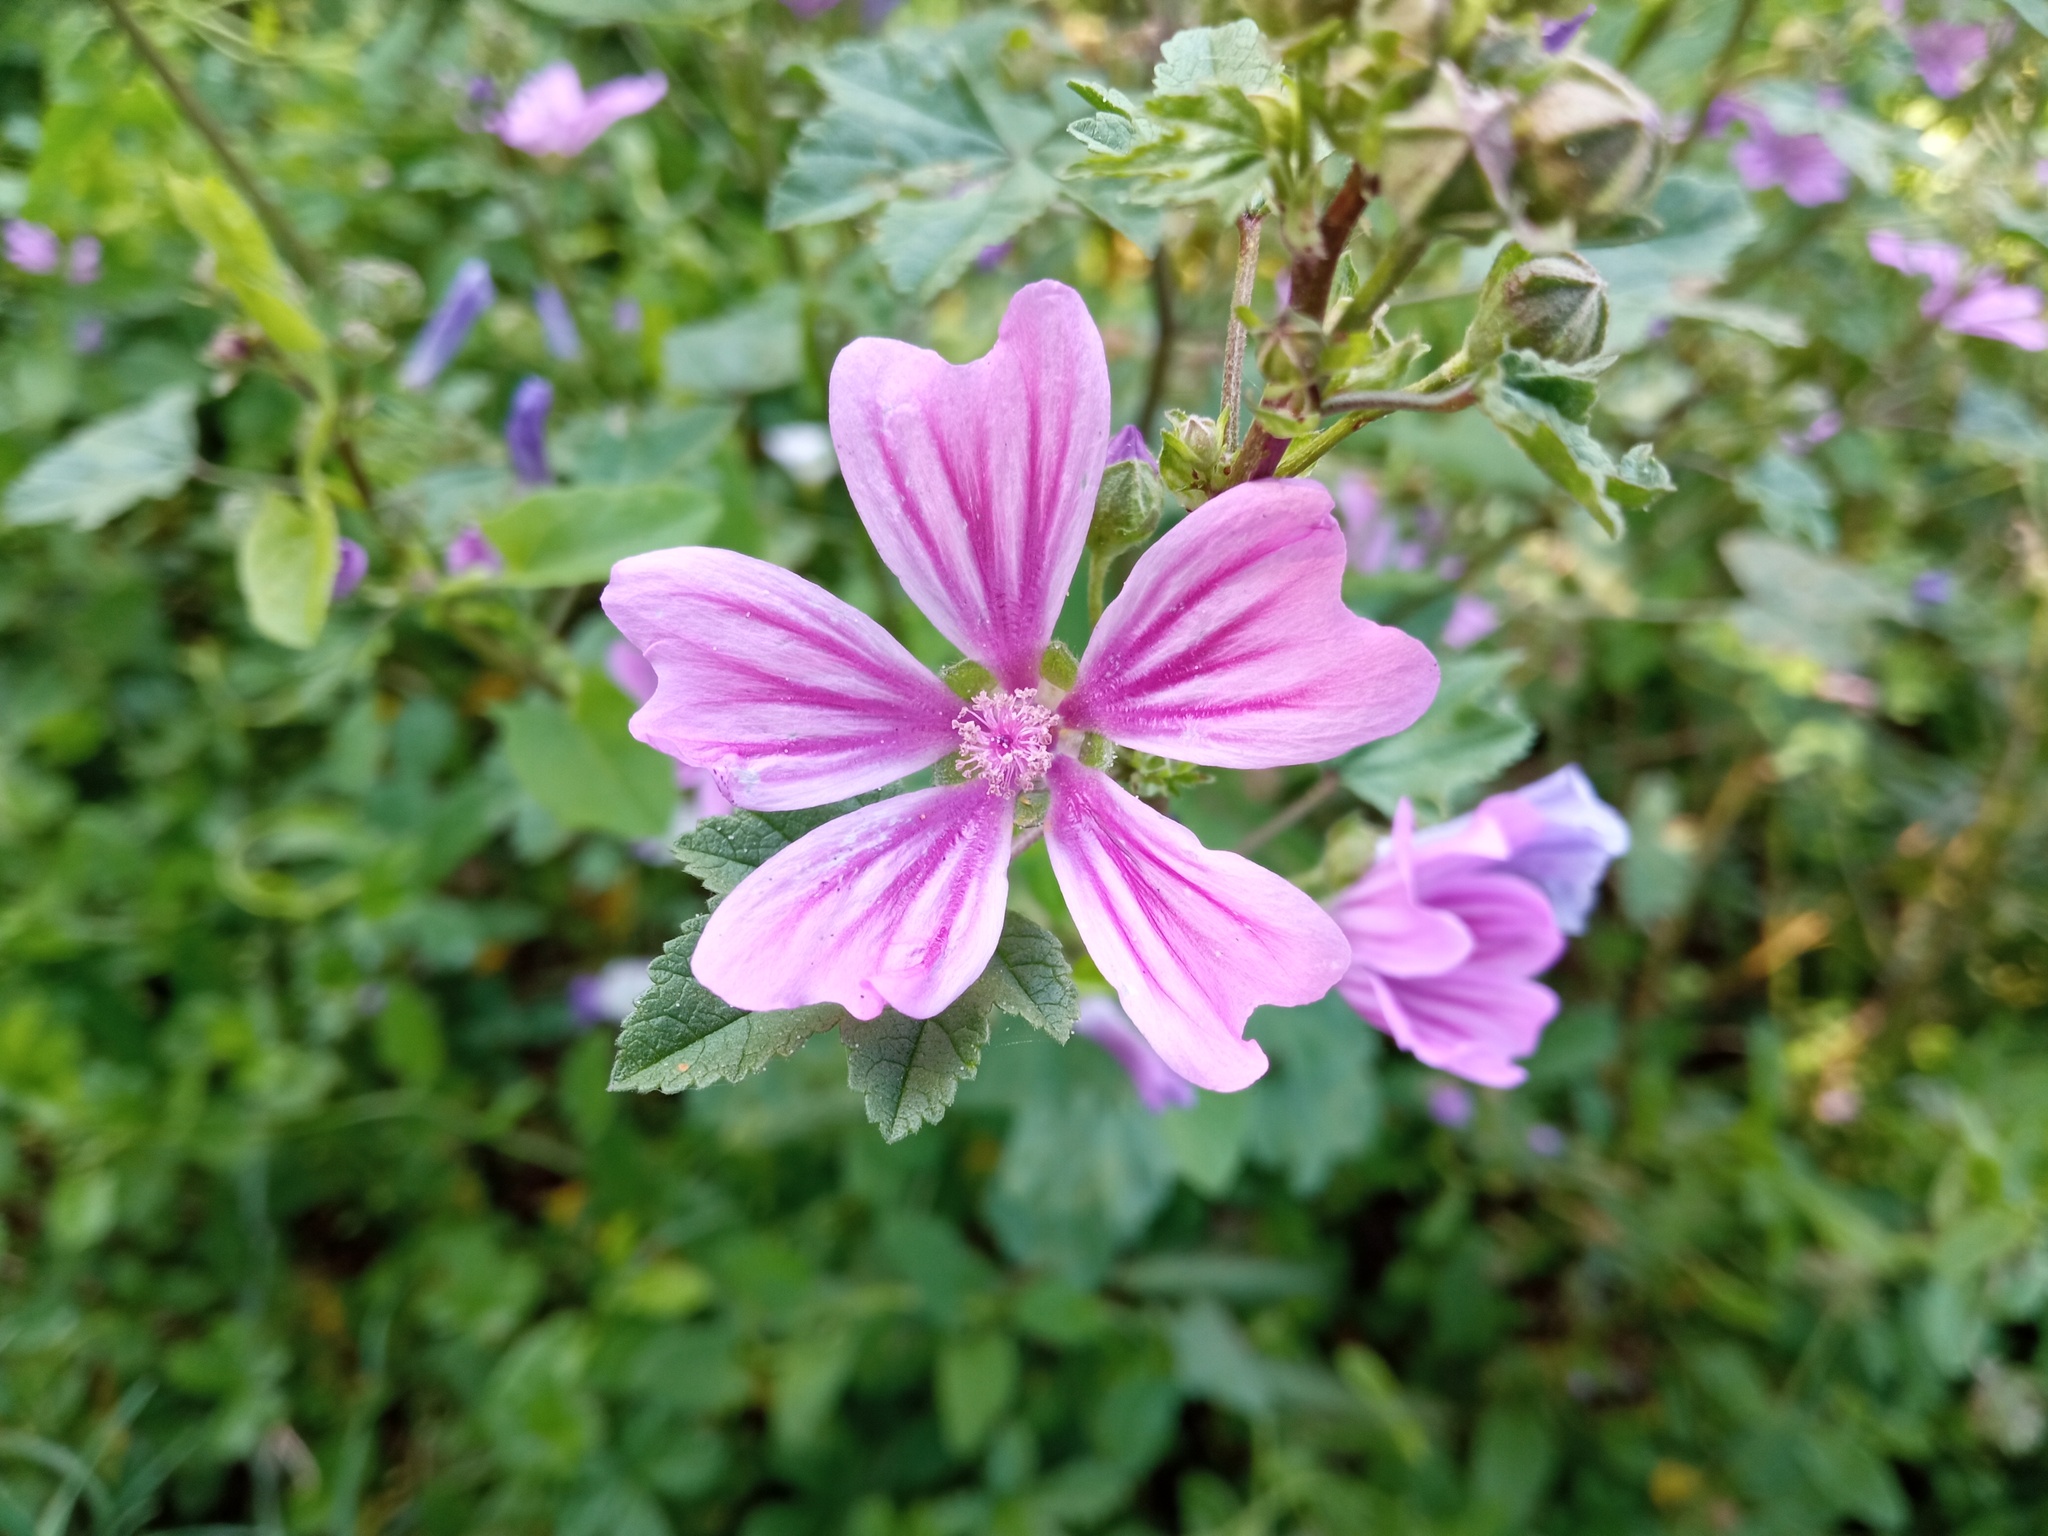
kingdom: Plantae
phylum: Tracheophyta
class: Magnoliopsida
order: Malvales
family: Malvaceae
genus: Malva
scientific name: Malva sylvestris
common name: Common mallow
